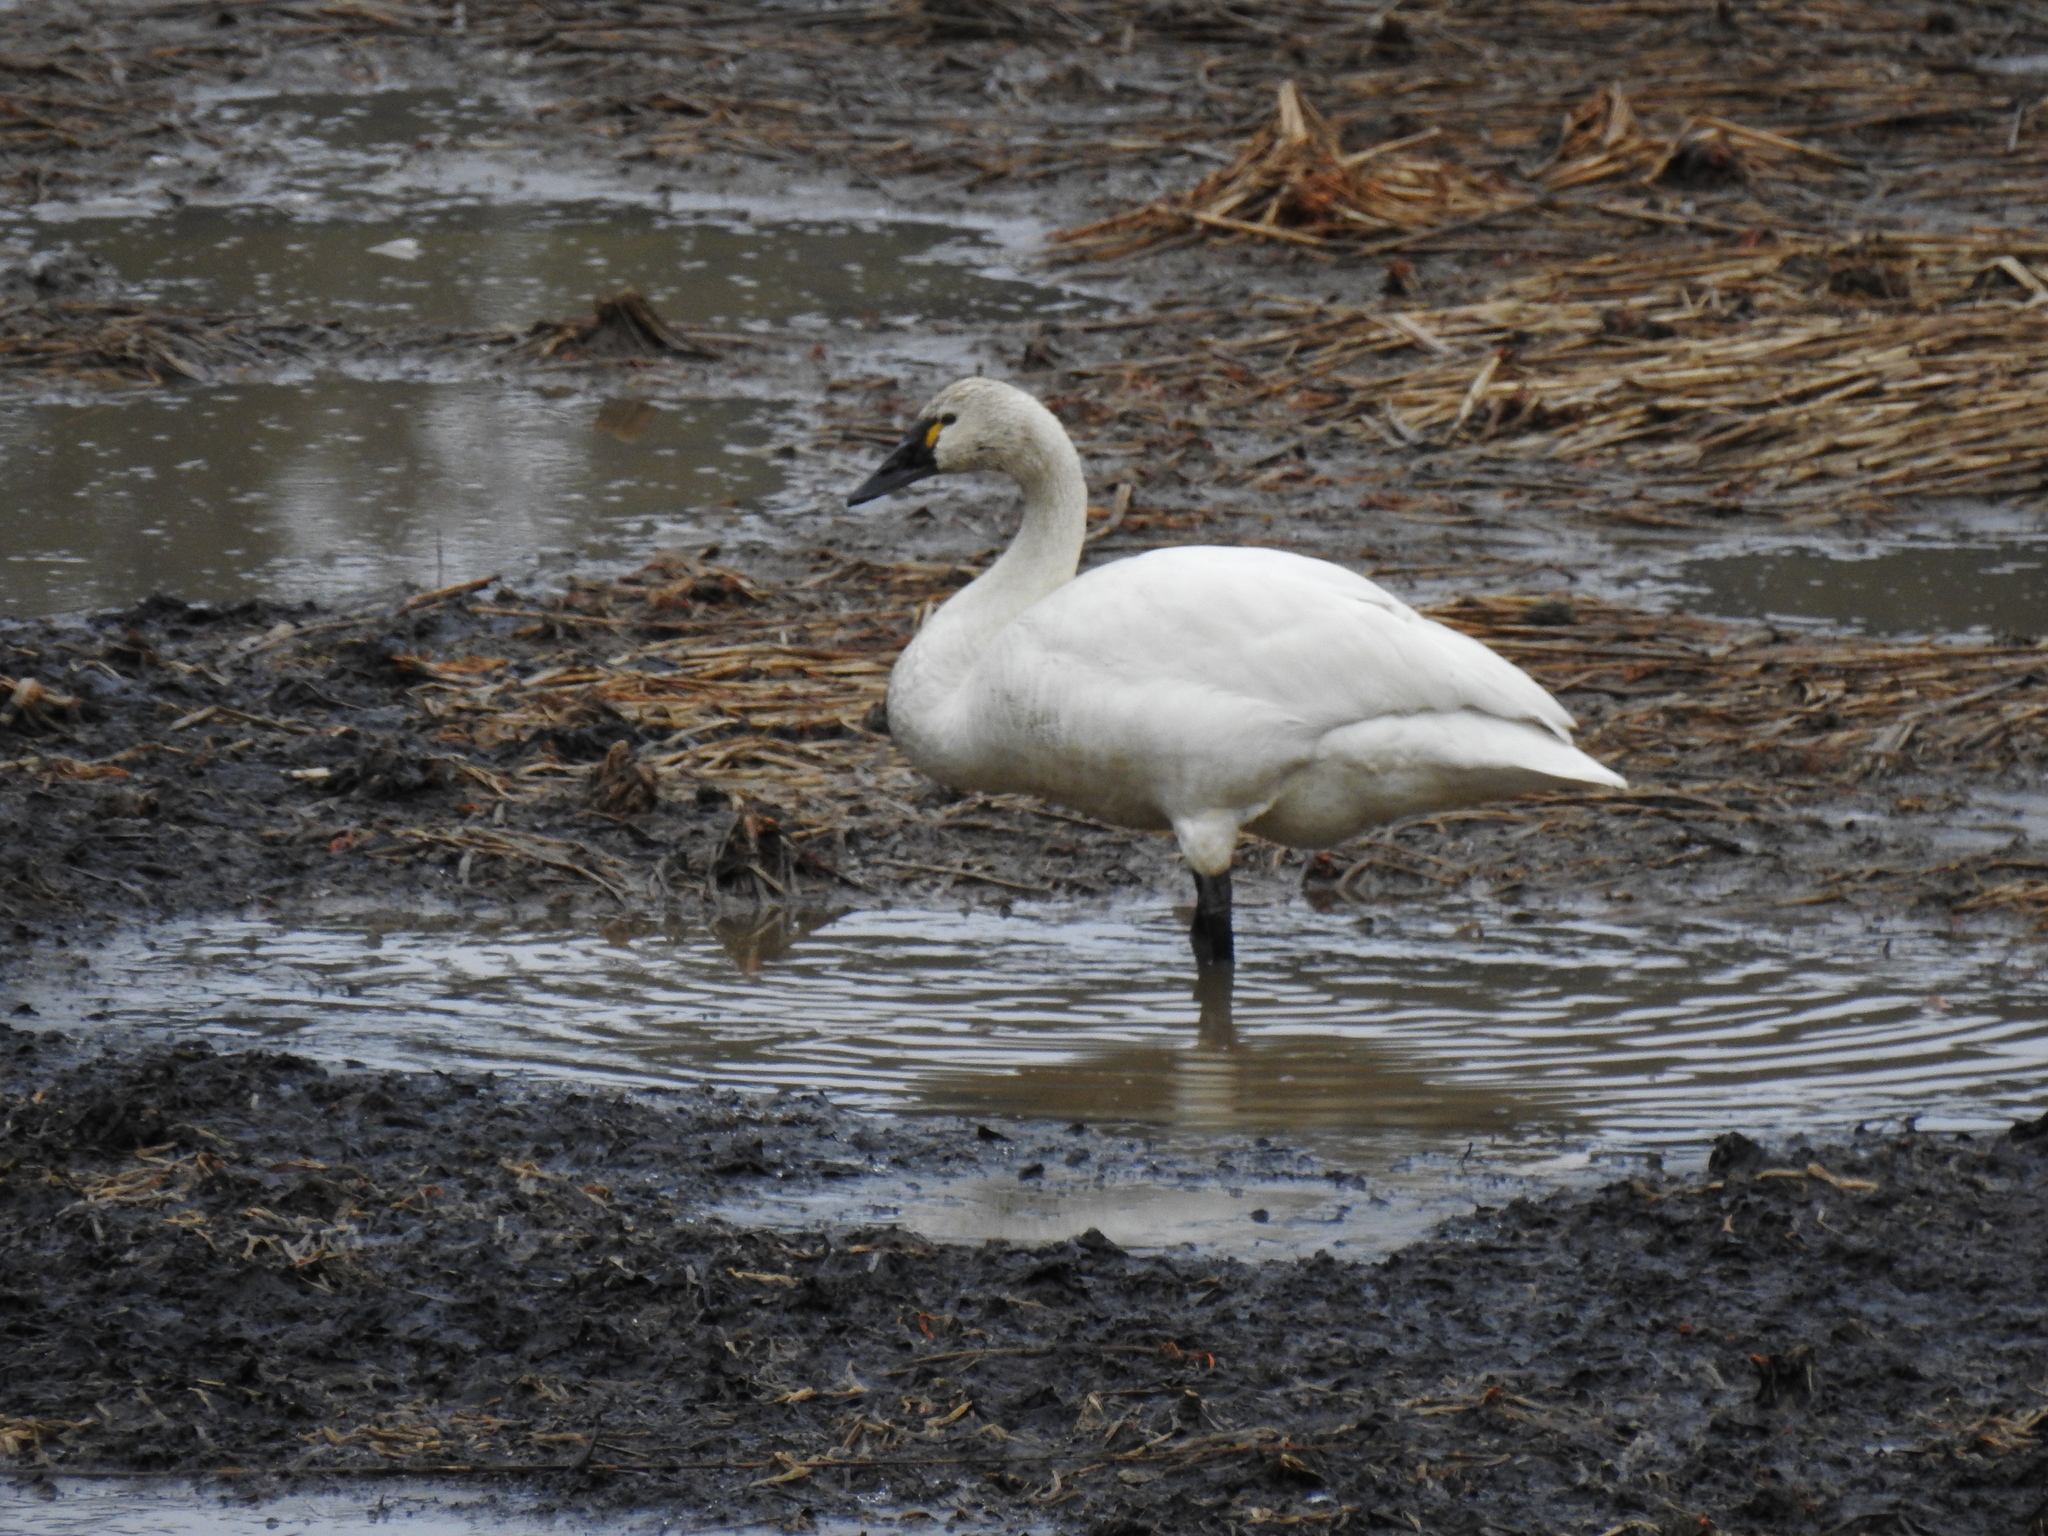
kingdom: Animalia
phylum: Chordata
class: Aves
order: Anseriformes
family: Anatidae
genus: Cygnus
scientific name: Cygnus columbianus
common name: Tundra swan
